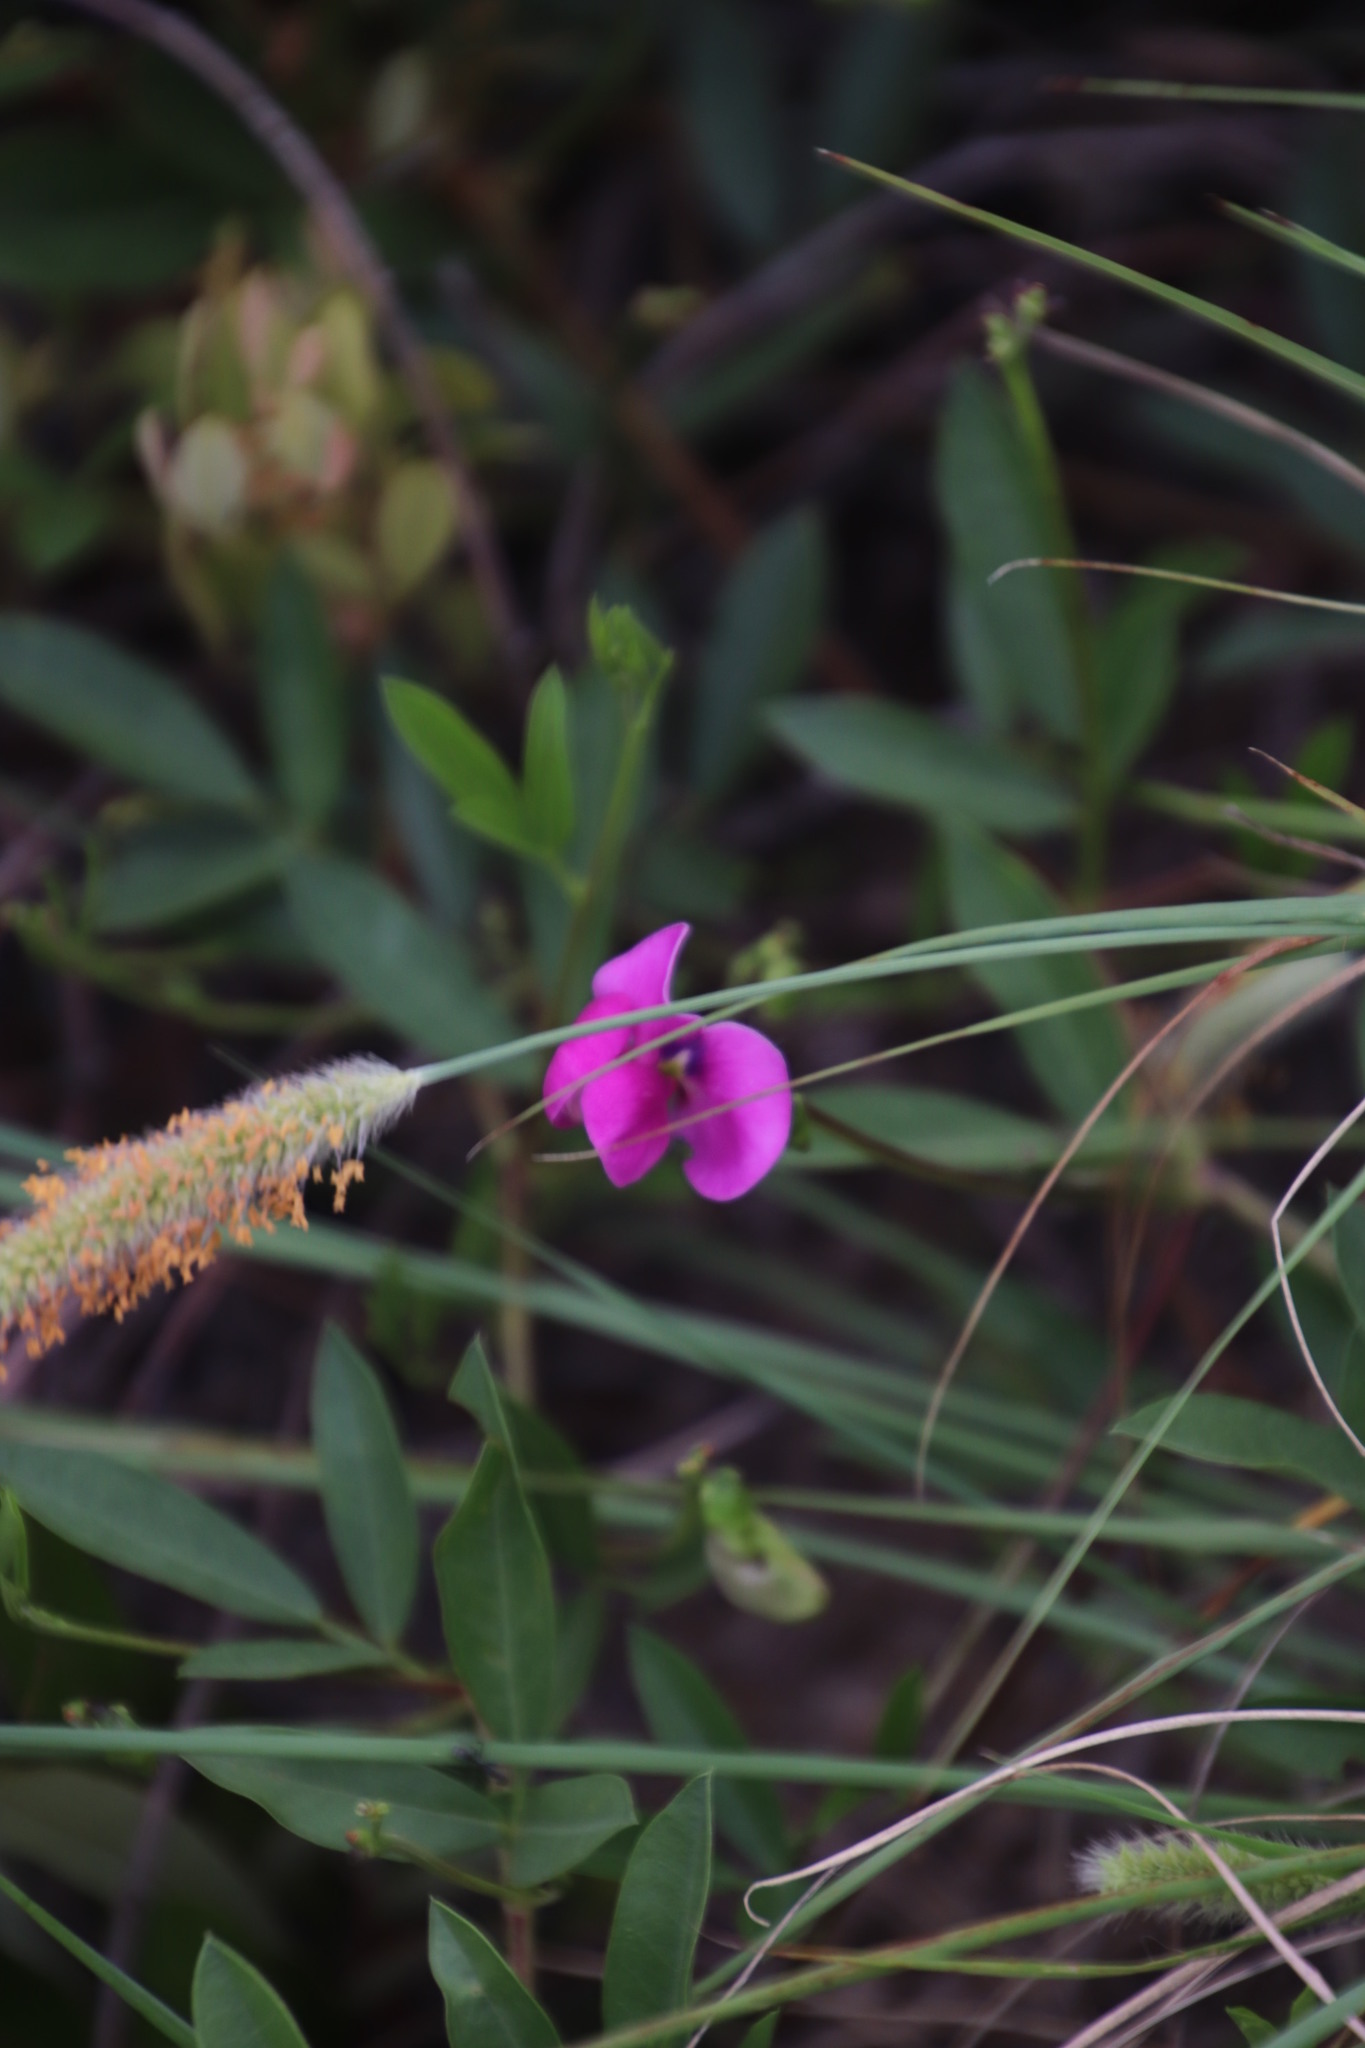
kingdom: Plantae
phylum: Tracheophyta
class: Magnoliopsida
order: Fabales
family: Fabaceae
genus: Sphenostylis
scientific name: Sphenostylis angustifolia
